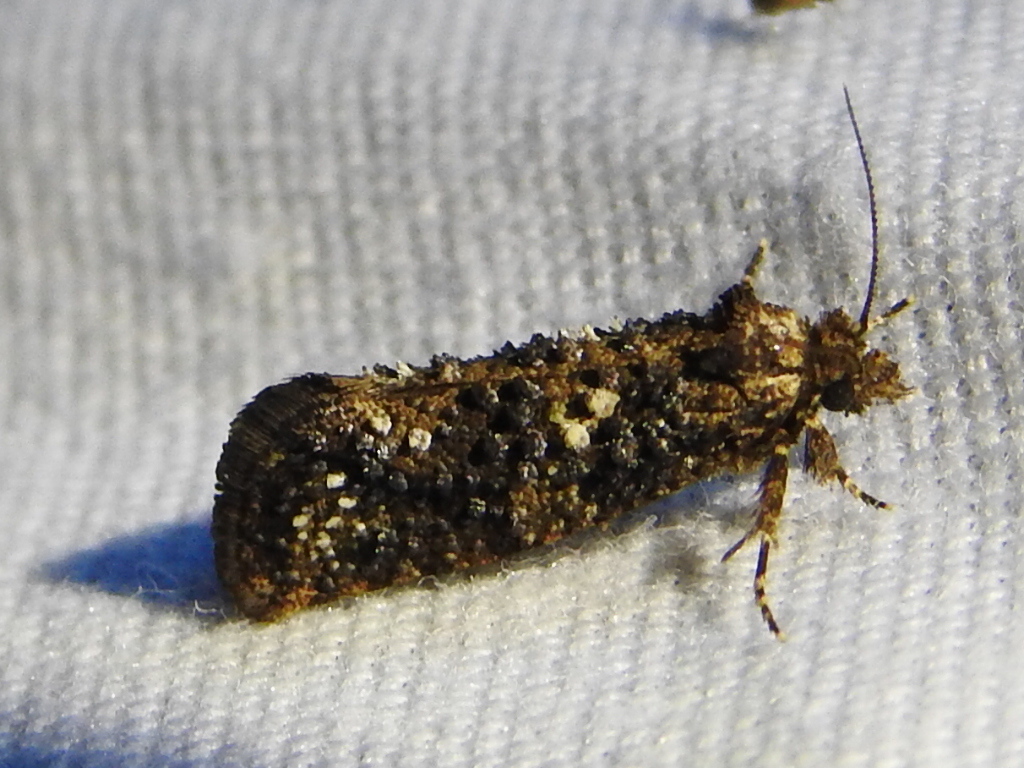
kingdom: Animalia
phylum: Arthropoda
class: Insecta
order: Lepidoptera
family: Tineidae
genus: Acrolophus
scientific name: Acrolophus cressoni
